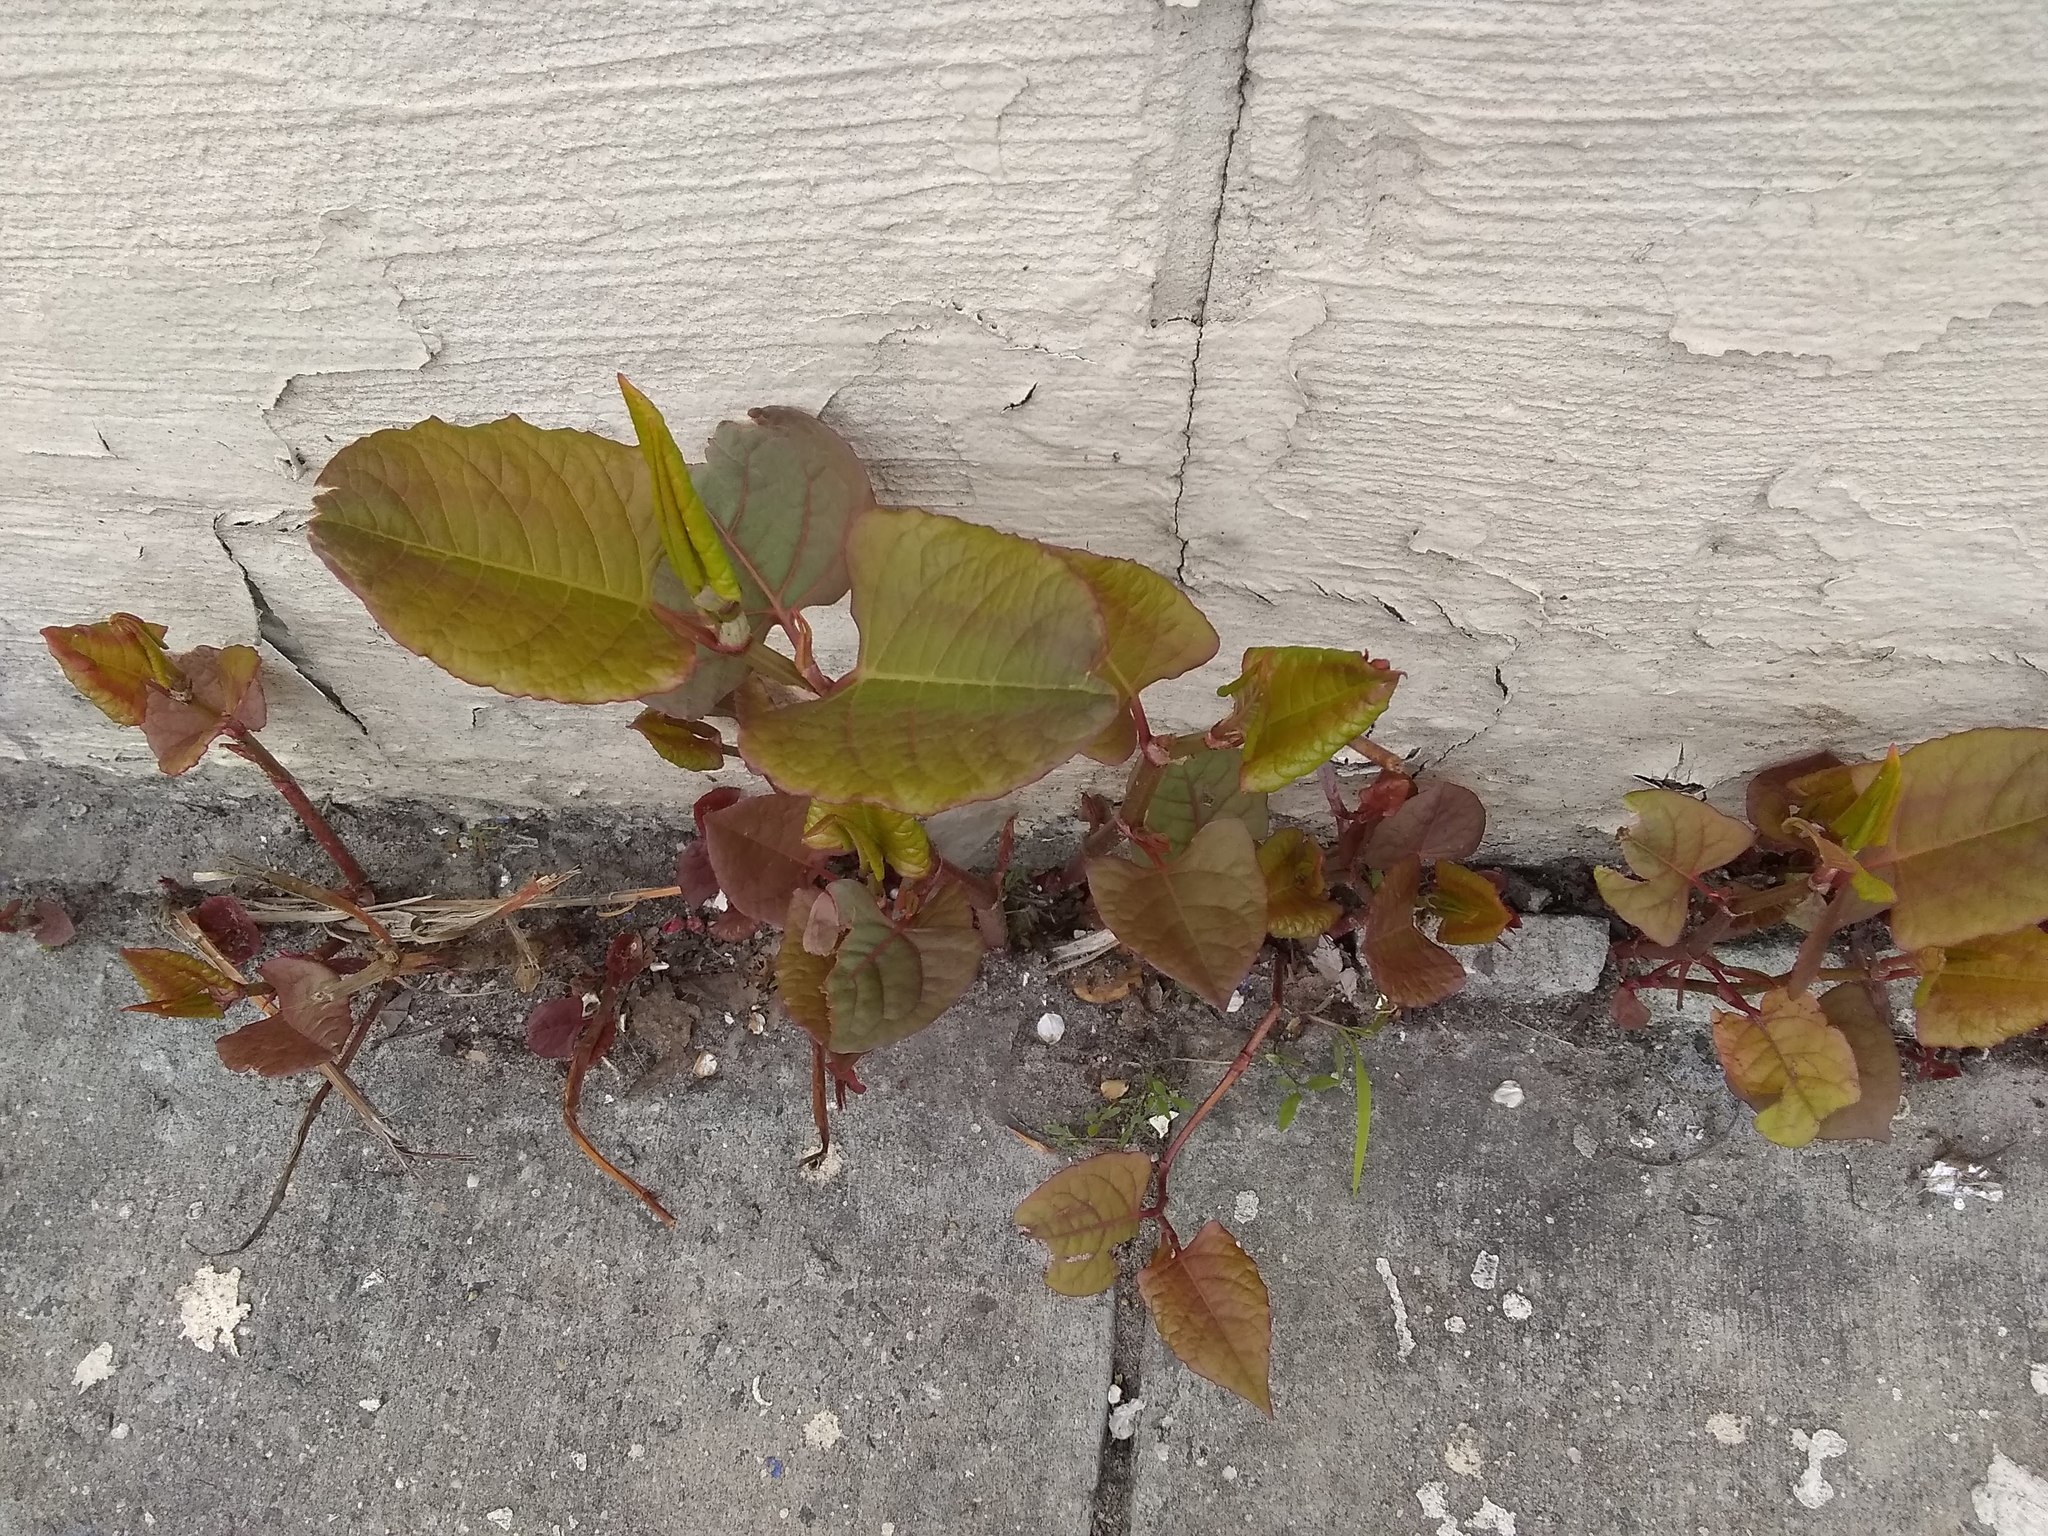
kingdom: Plantae
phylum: Tracheophyta
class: Magnoliopsida
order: Caryophyllales
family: Polygonaceae
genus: Reynoutria
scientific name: Reynoutria japonica
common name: Japanese knotweed
